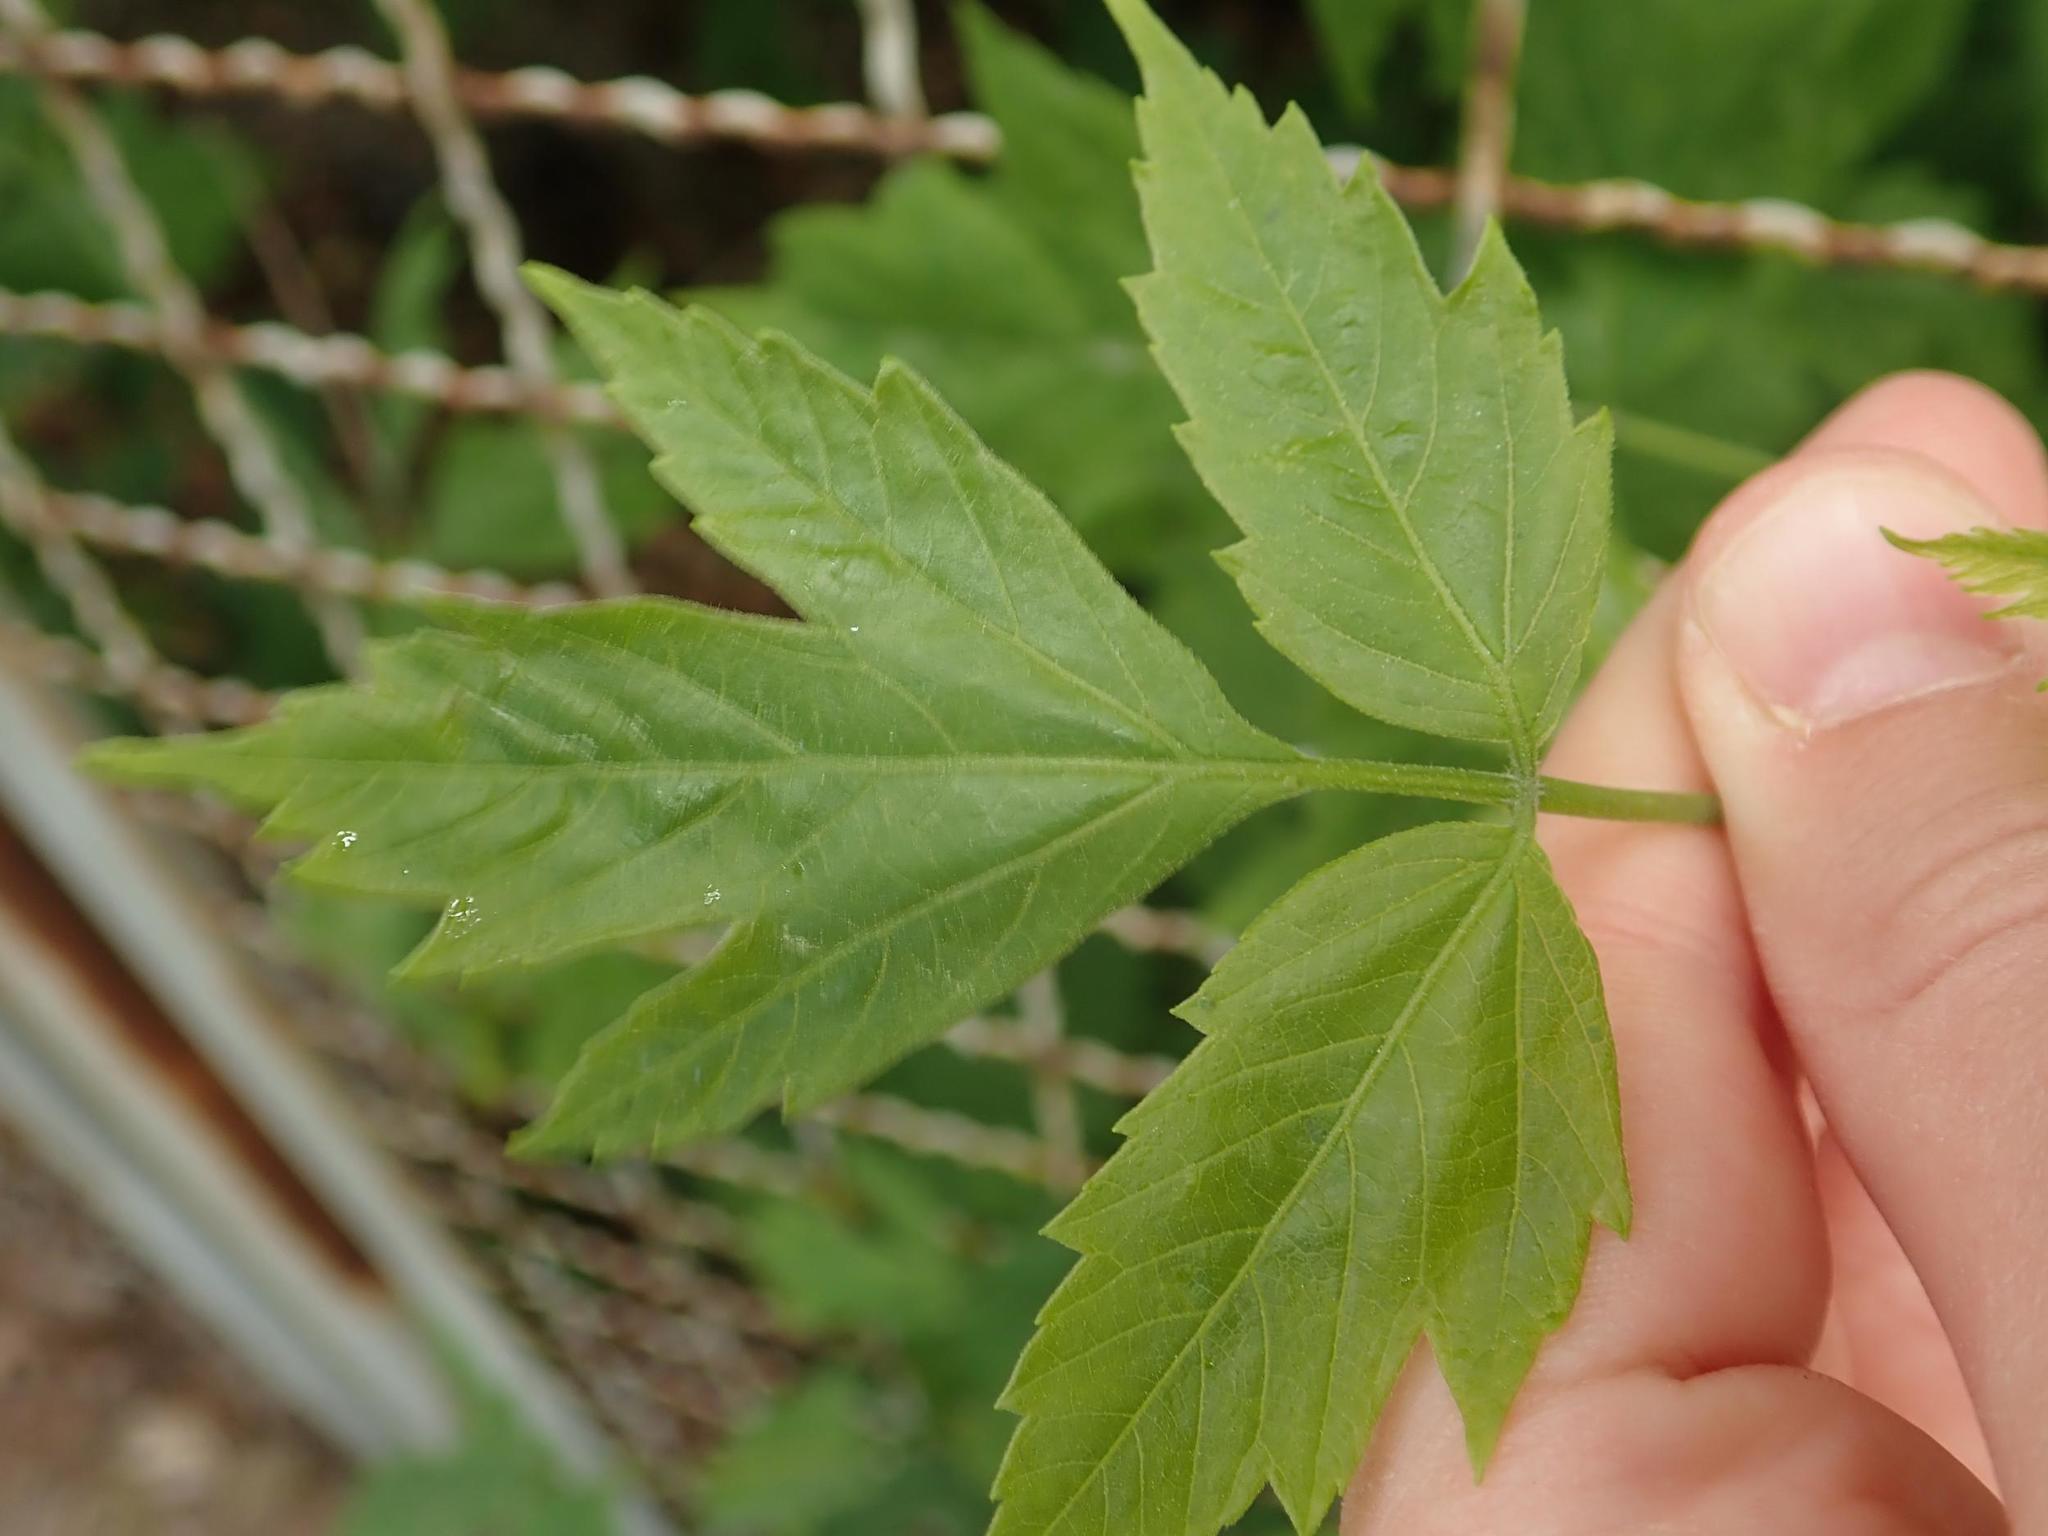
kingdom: Plantae
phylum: Tracheophyta
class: Magnoliopsida
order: Sapindales
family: Sapindaceae
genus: Acer
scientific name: Acer negundo
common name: Ashleaf maple
